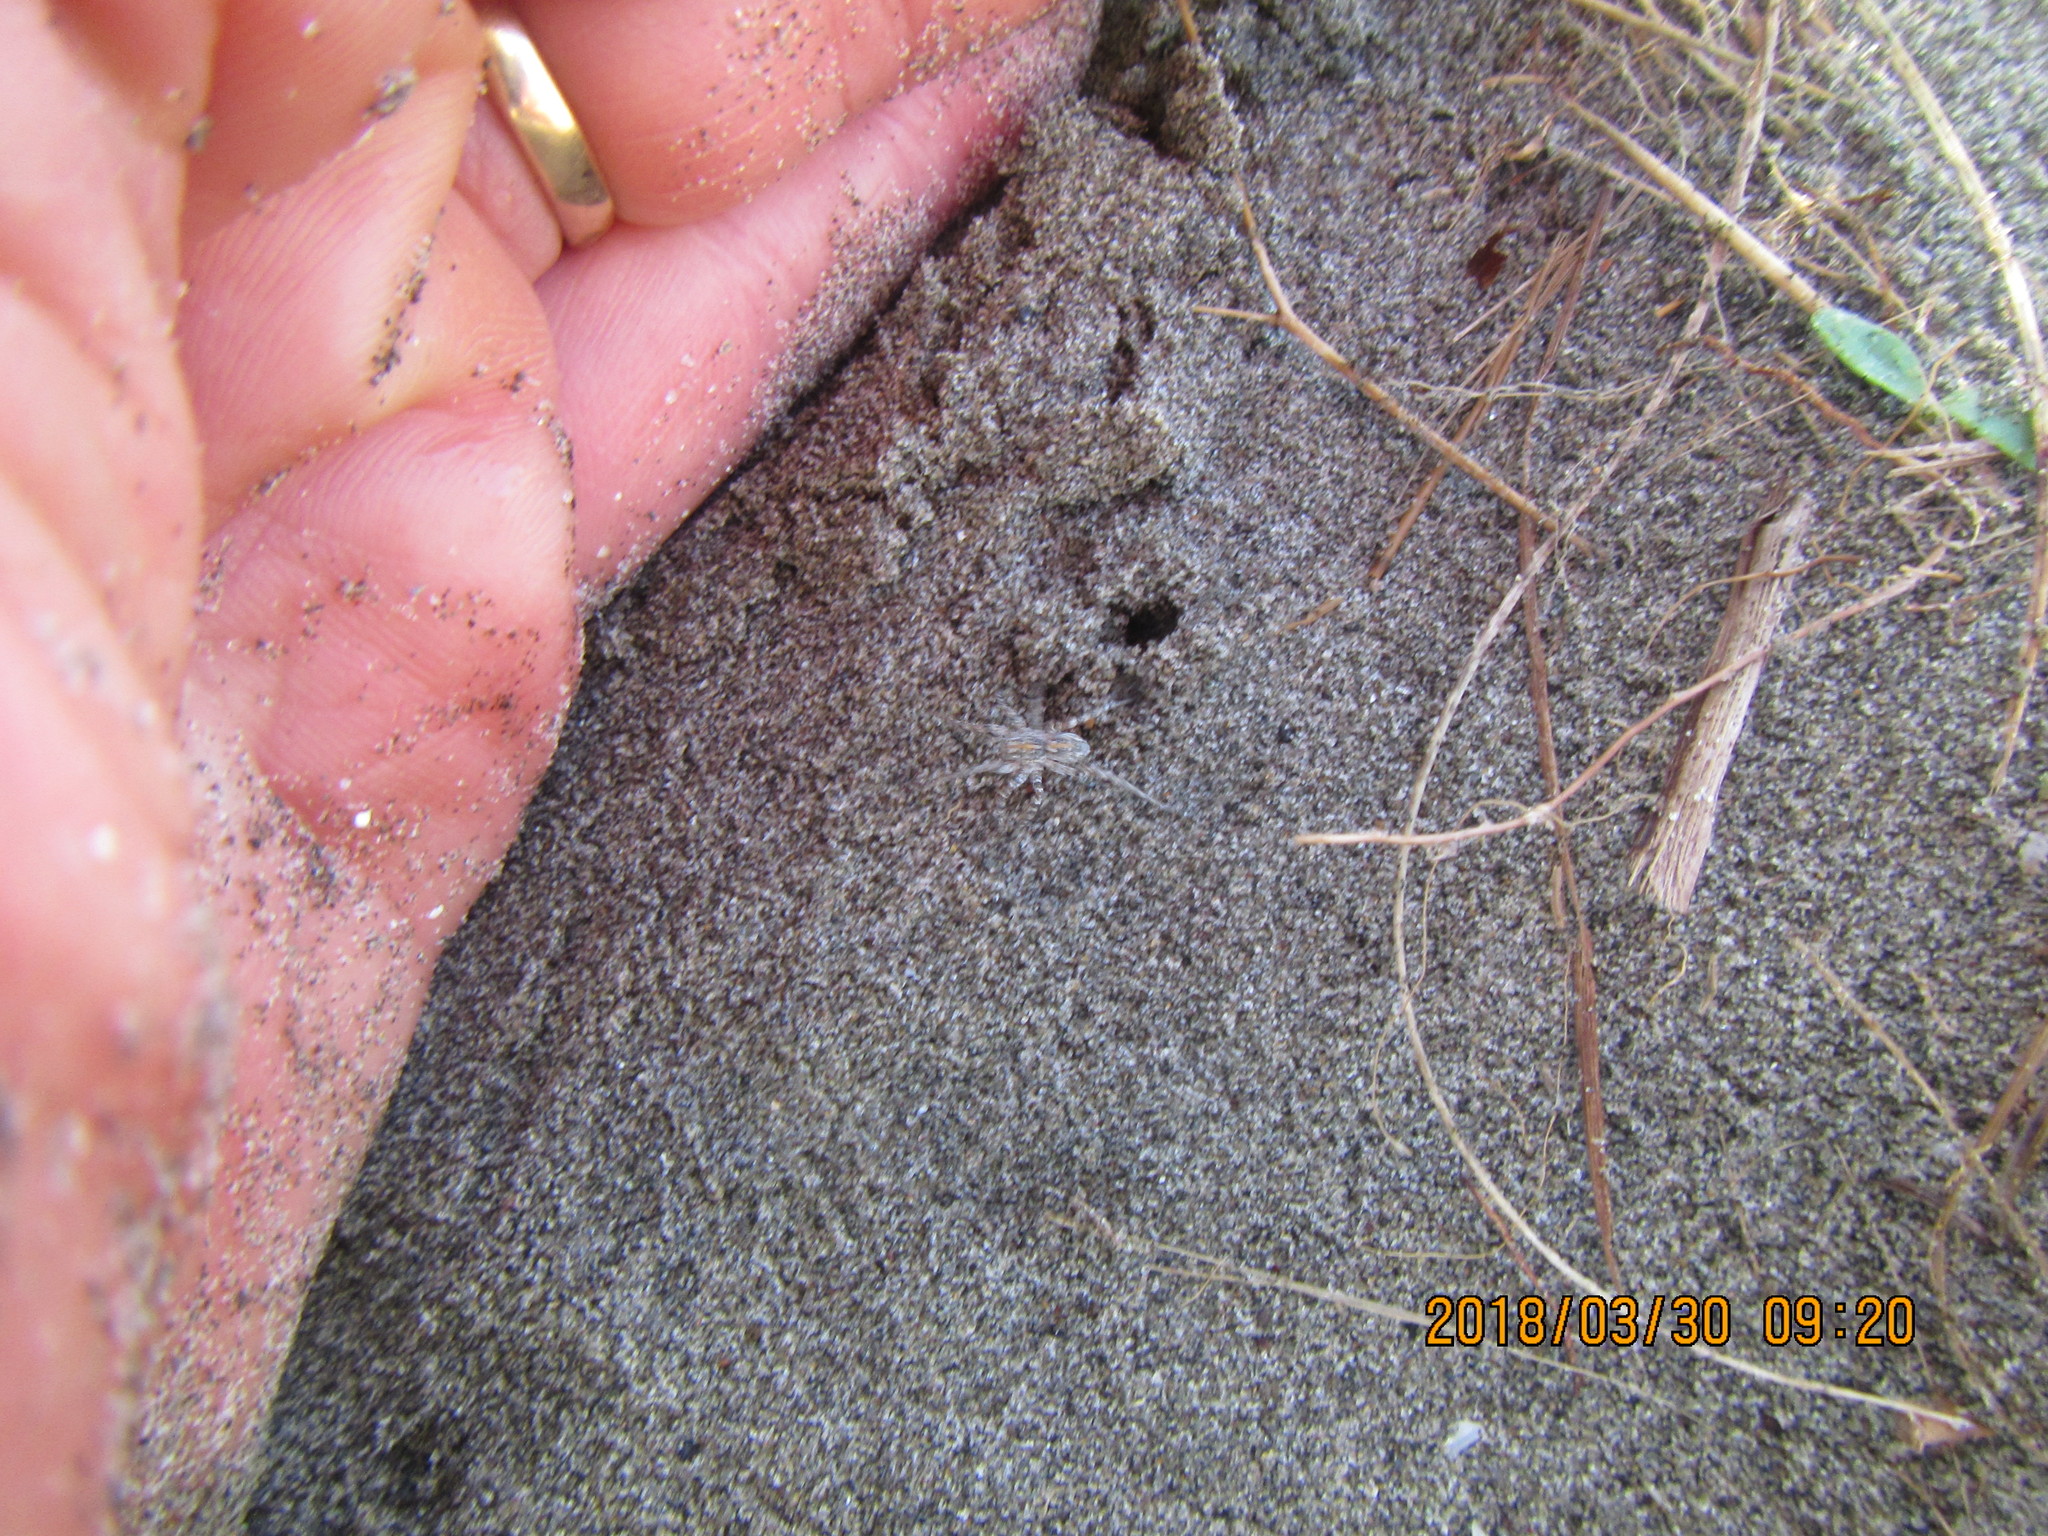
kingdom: Animalia
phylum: Arthropoda
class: Arachnida
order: Araneae
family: Lycosidae
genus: Anoteropsis
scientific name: Anoteropsis litoralis
